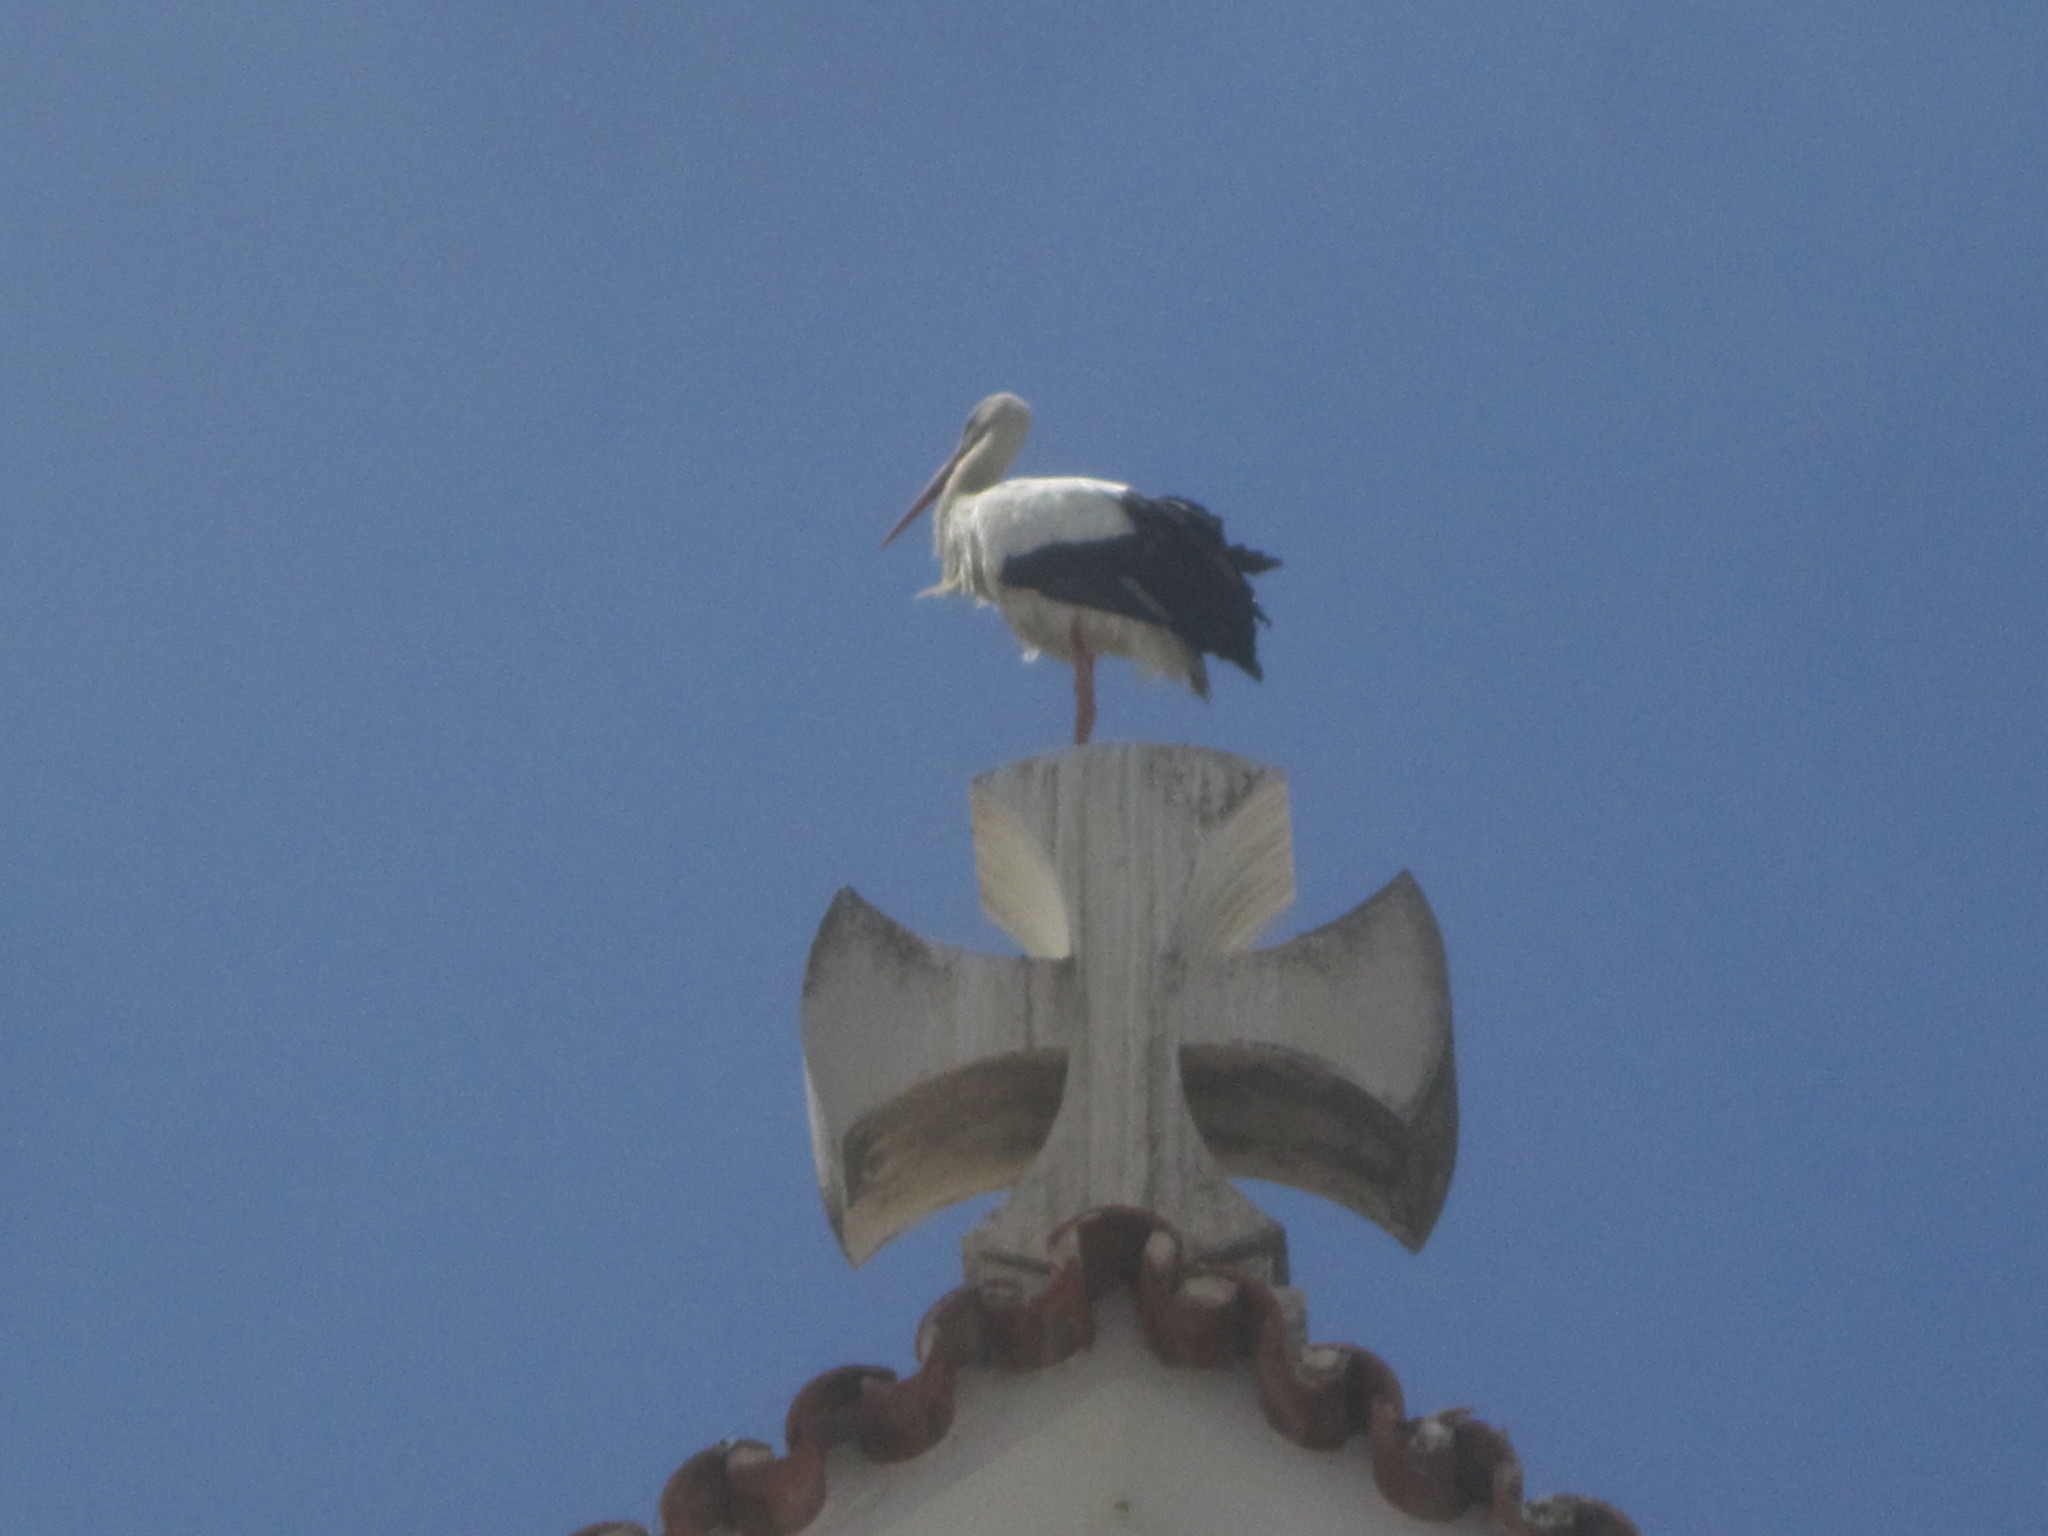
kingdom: Animalia
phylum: Chordata
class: Aves
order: Ciconiiformes
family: Ciconiidae
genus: Ciconia
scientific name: Ciconia ciconia
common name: White stork
